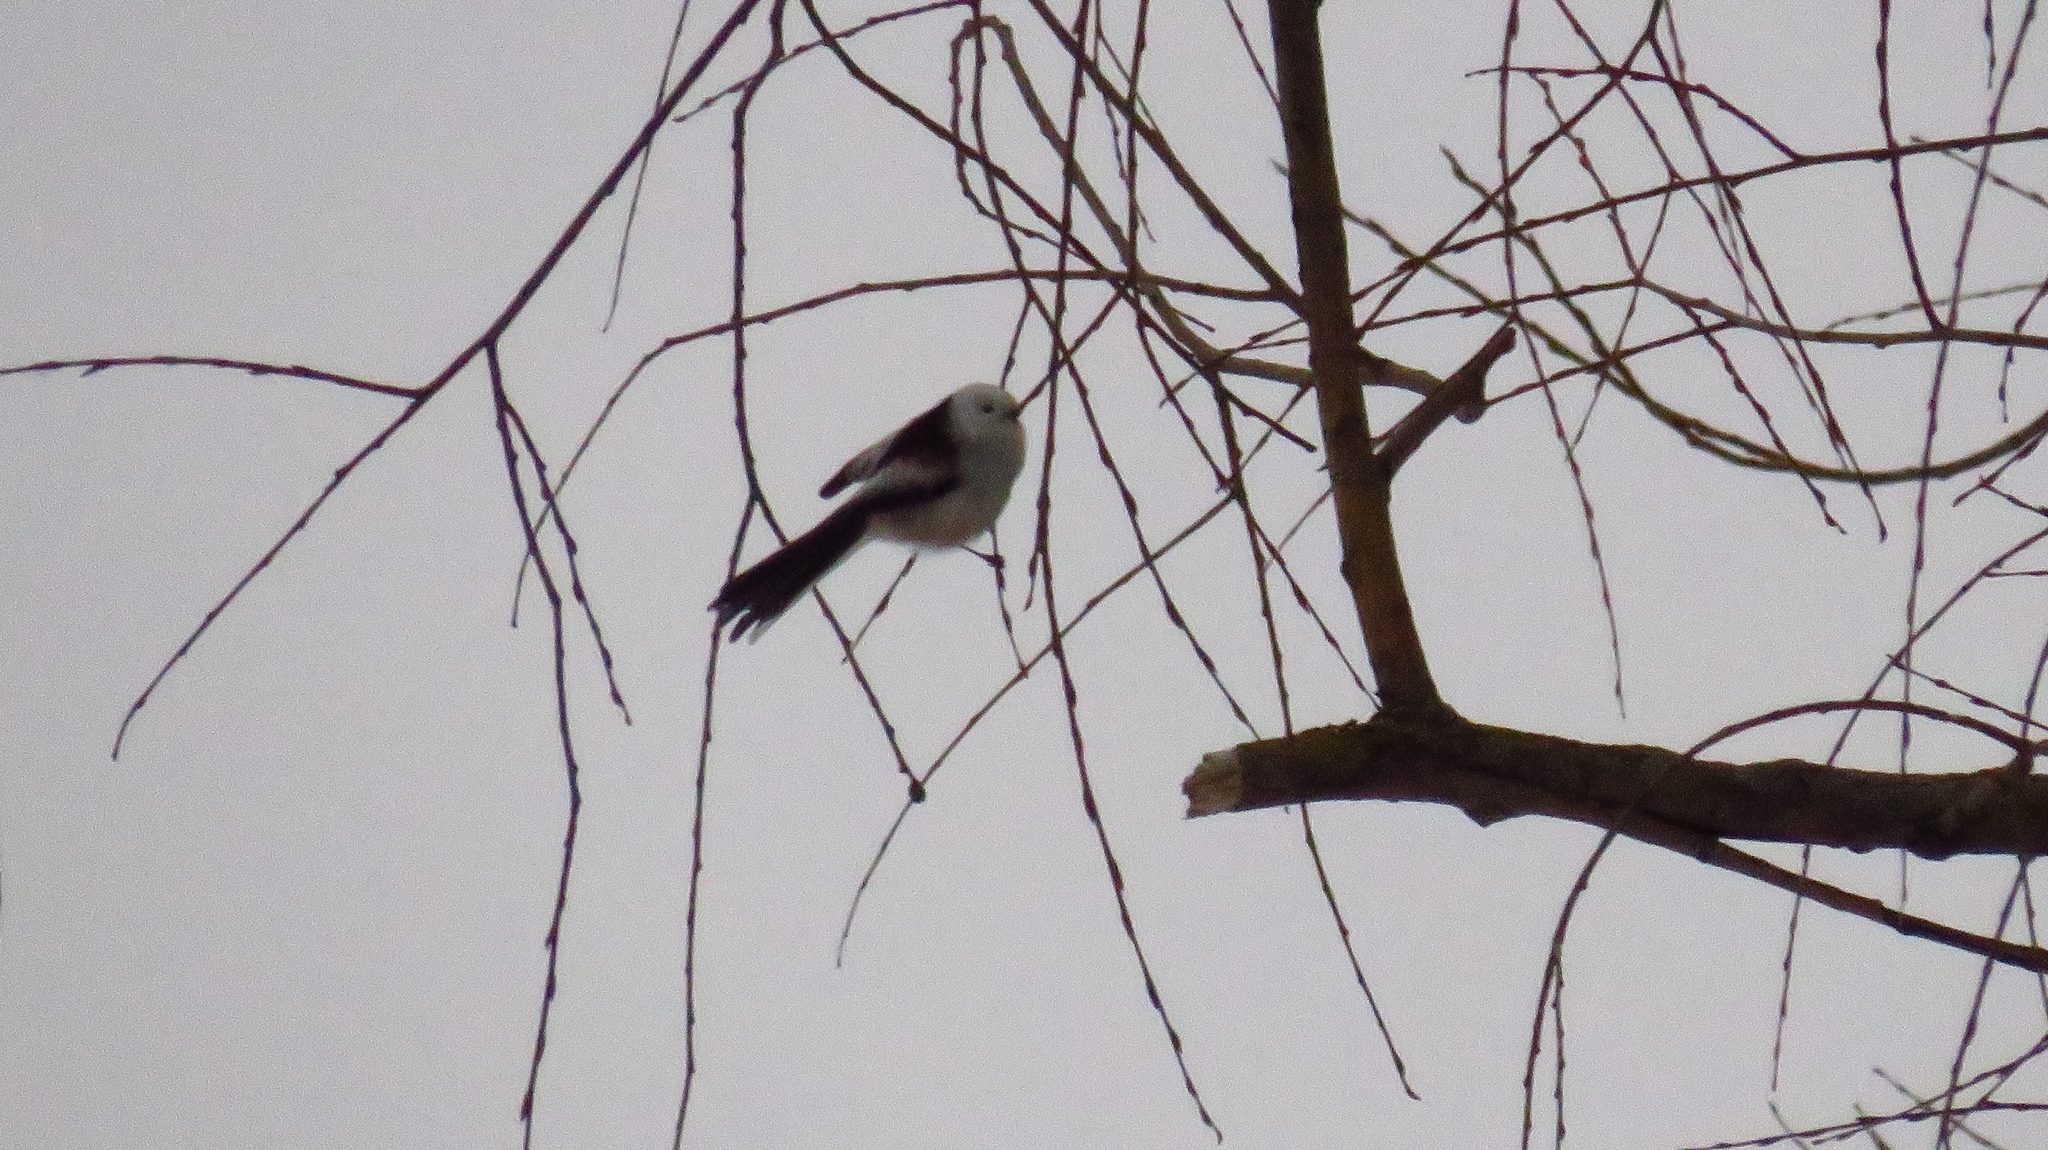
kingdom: Animalia
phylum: Chordata
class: Aves
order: Passeriformes
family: Aegithalidae
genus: Aegithalos
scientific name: Aegithalos caudatus
